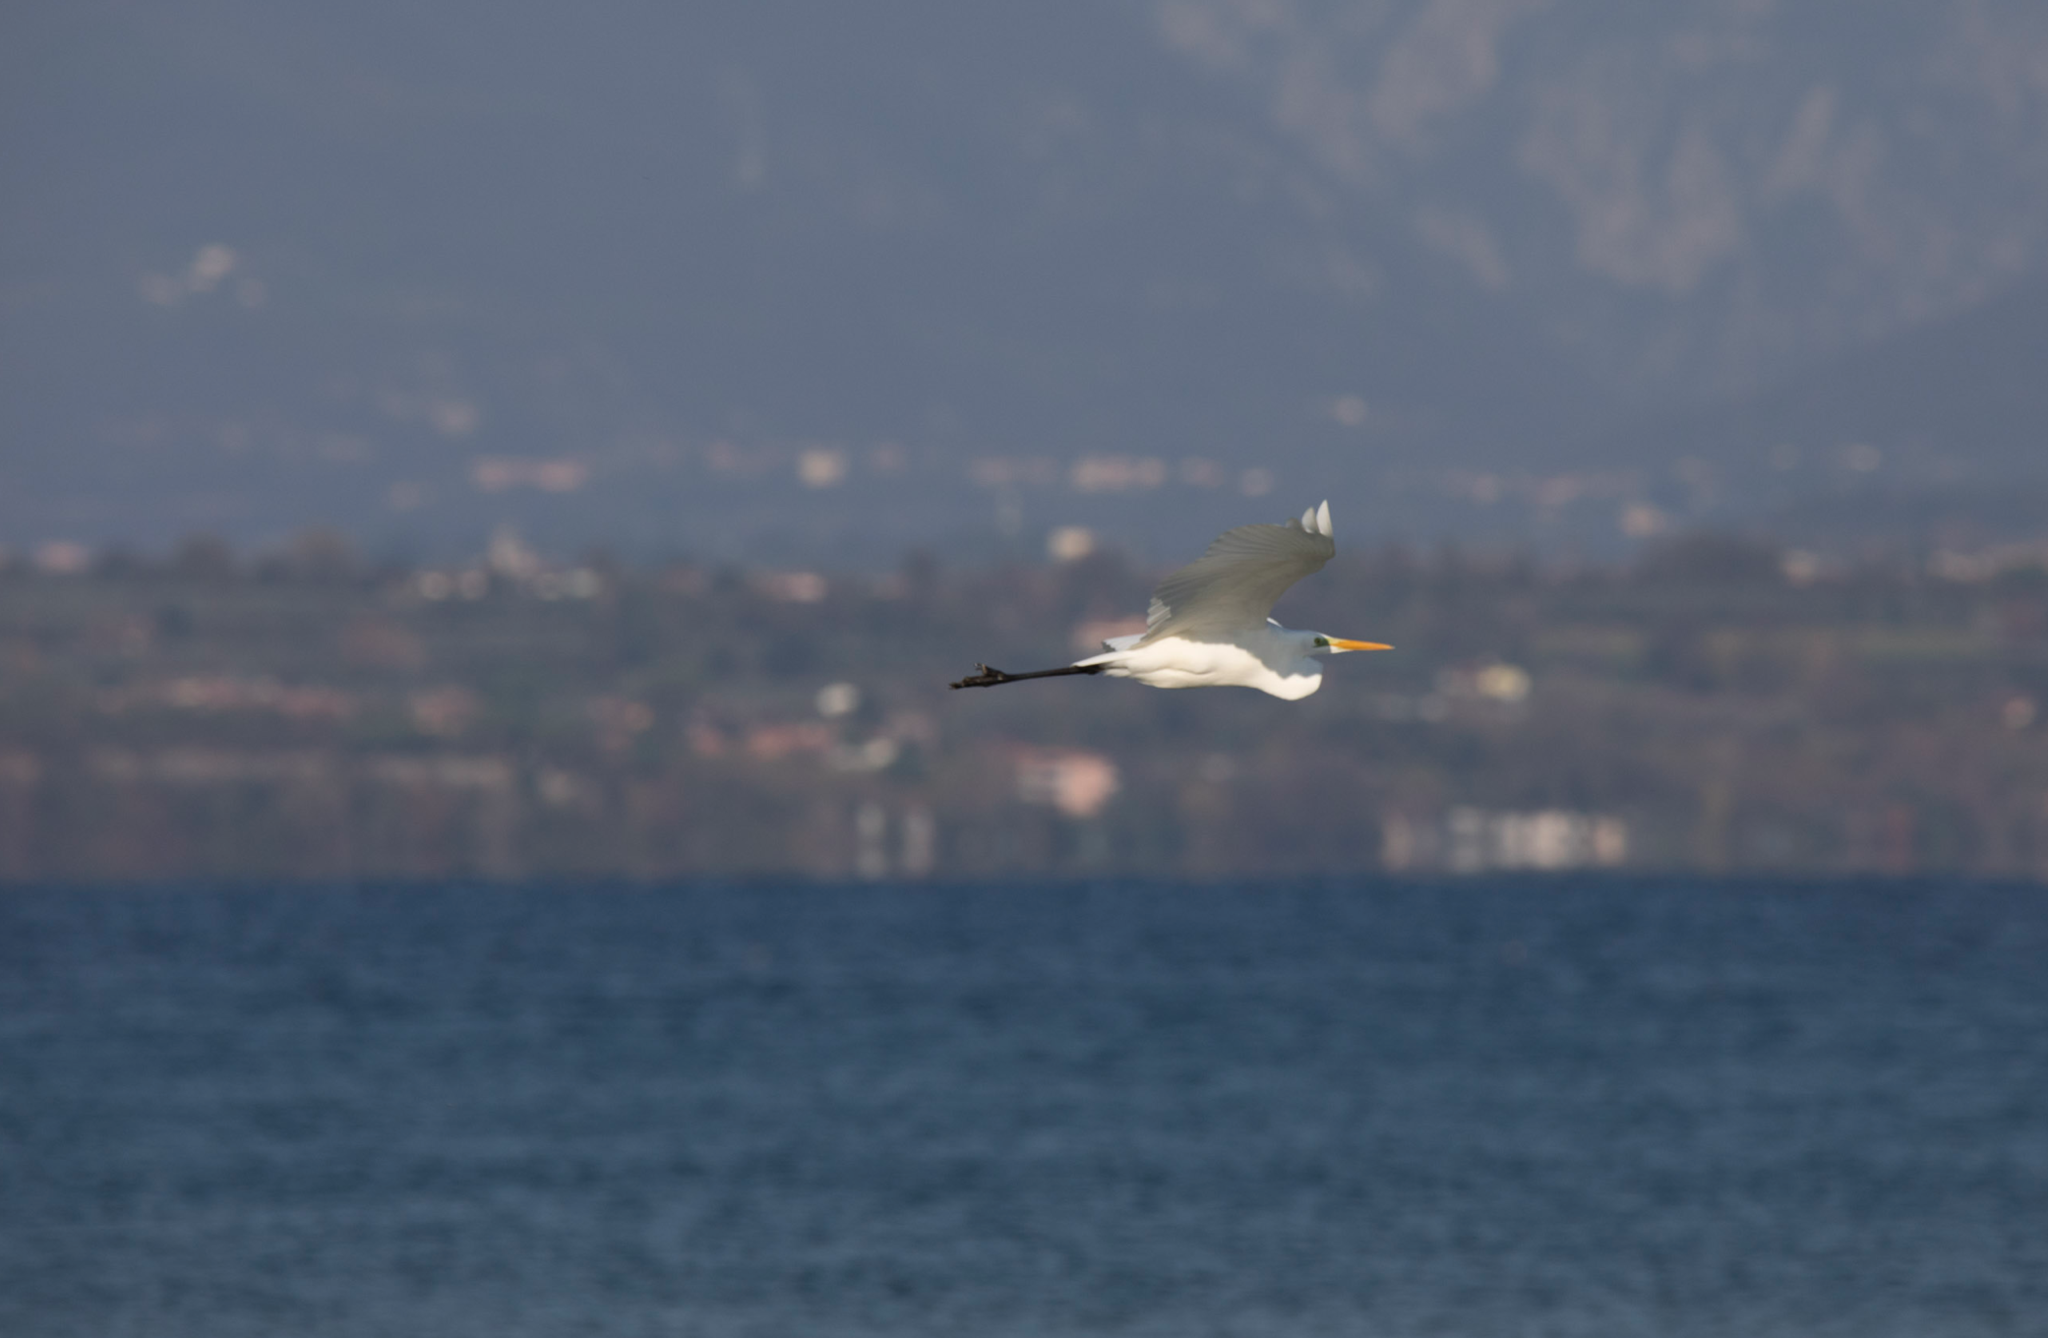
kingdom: Animalia
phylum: Chordata
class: Aves
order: Pelecaniformes
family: Ardeidae
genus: Ardea
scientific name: Ardea alba
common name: Great egret
